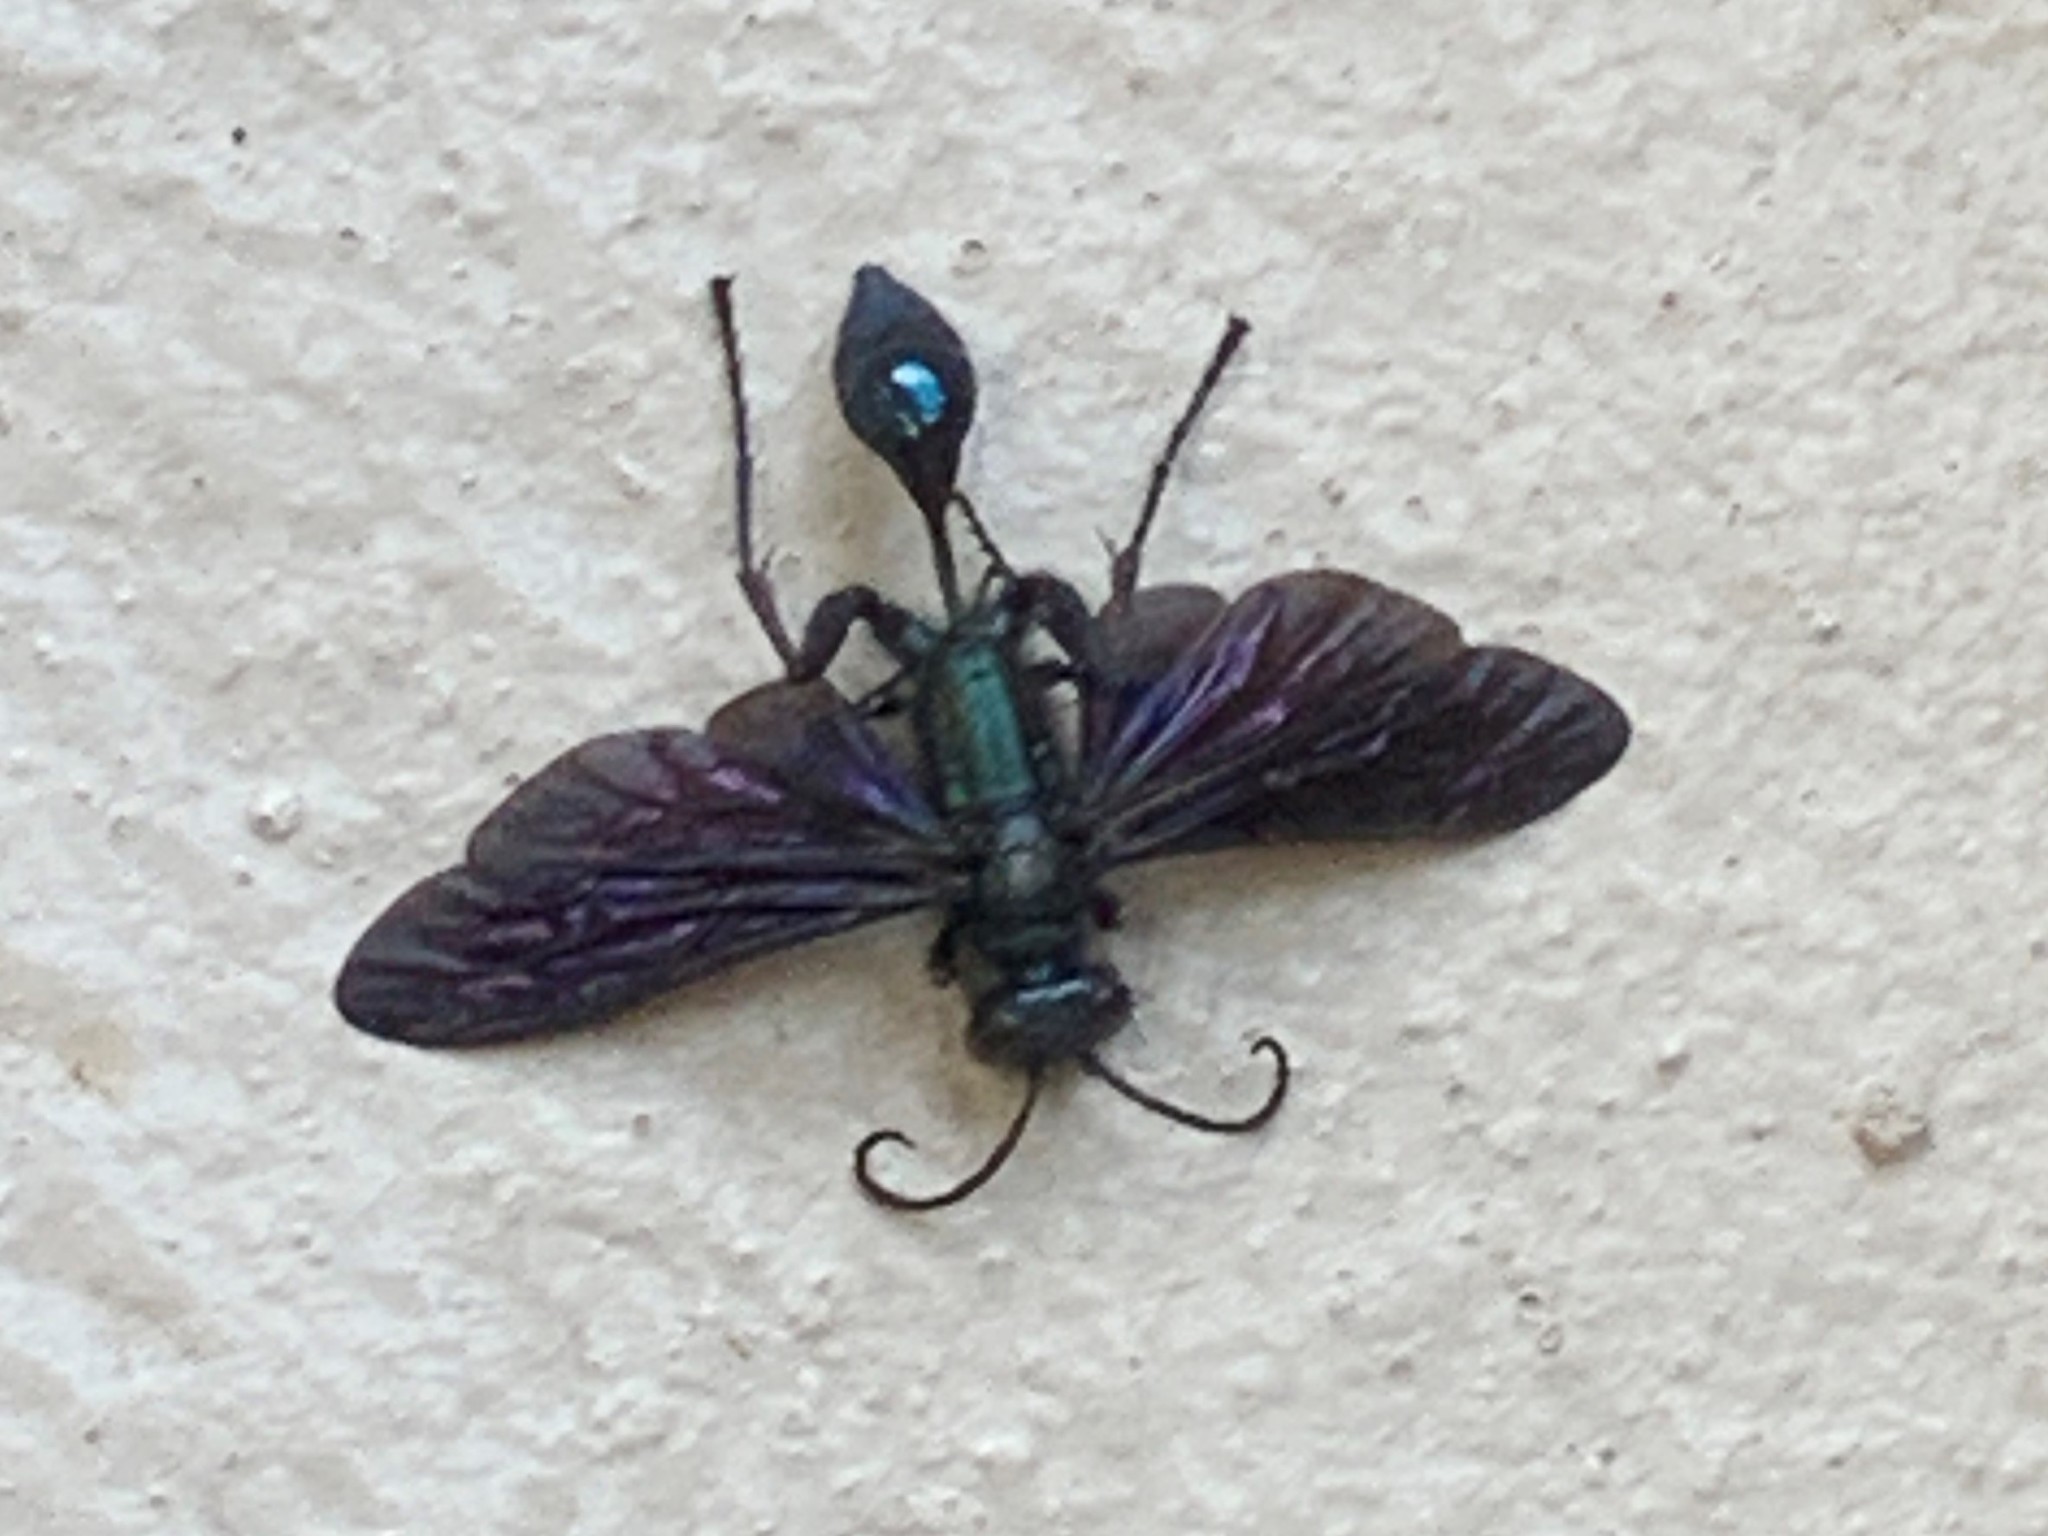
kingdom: Animalia
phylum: Arthropoda
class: Insecta
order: Hymenoptera
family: Sphecidae
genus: Chalybion
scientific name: Chalybion californicum
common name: Mud dauber
